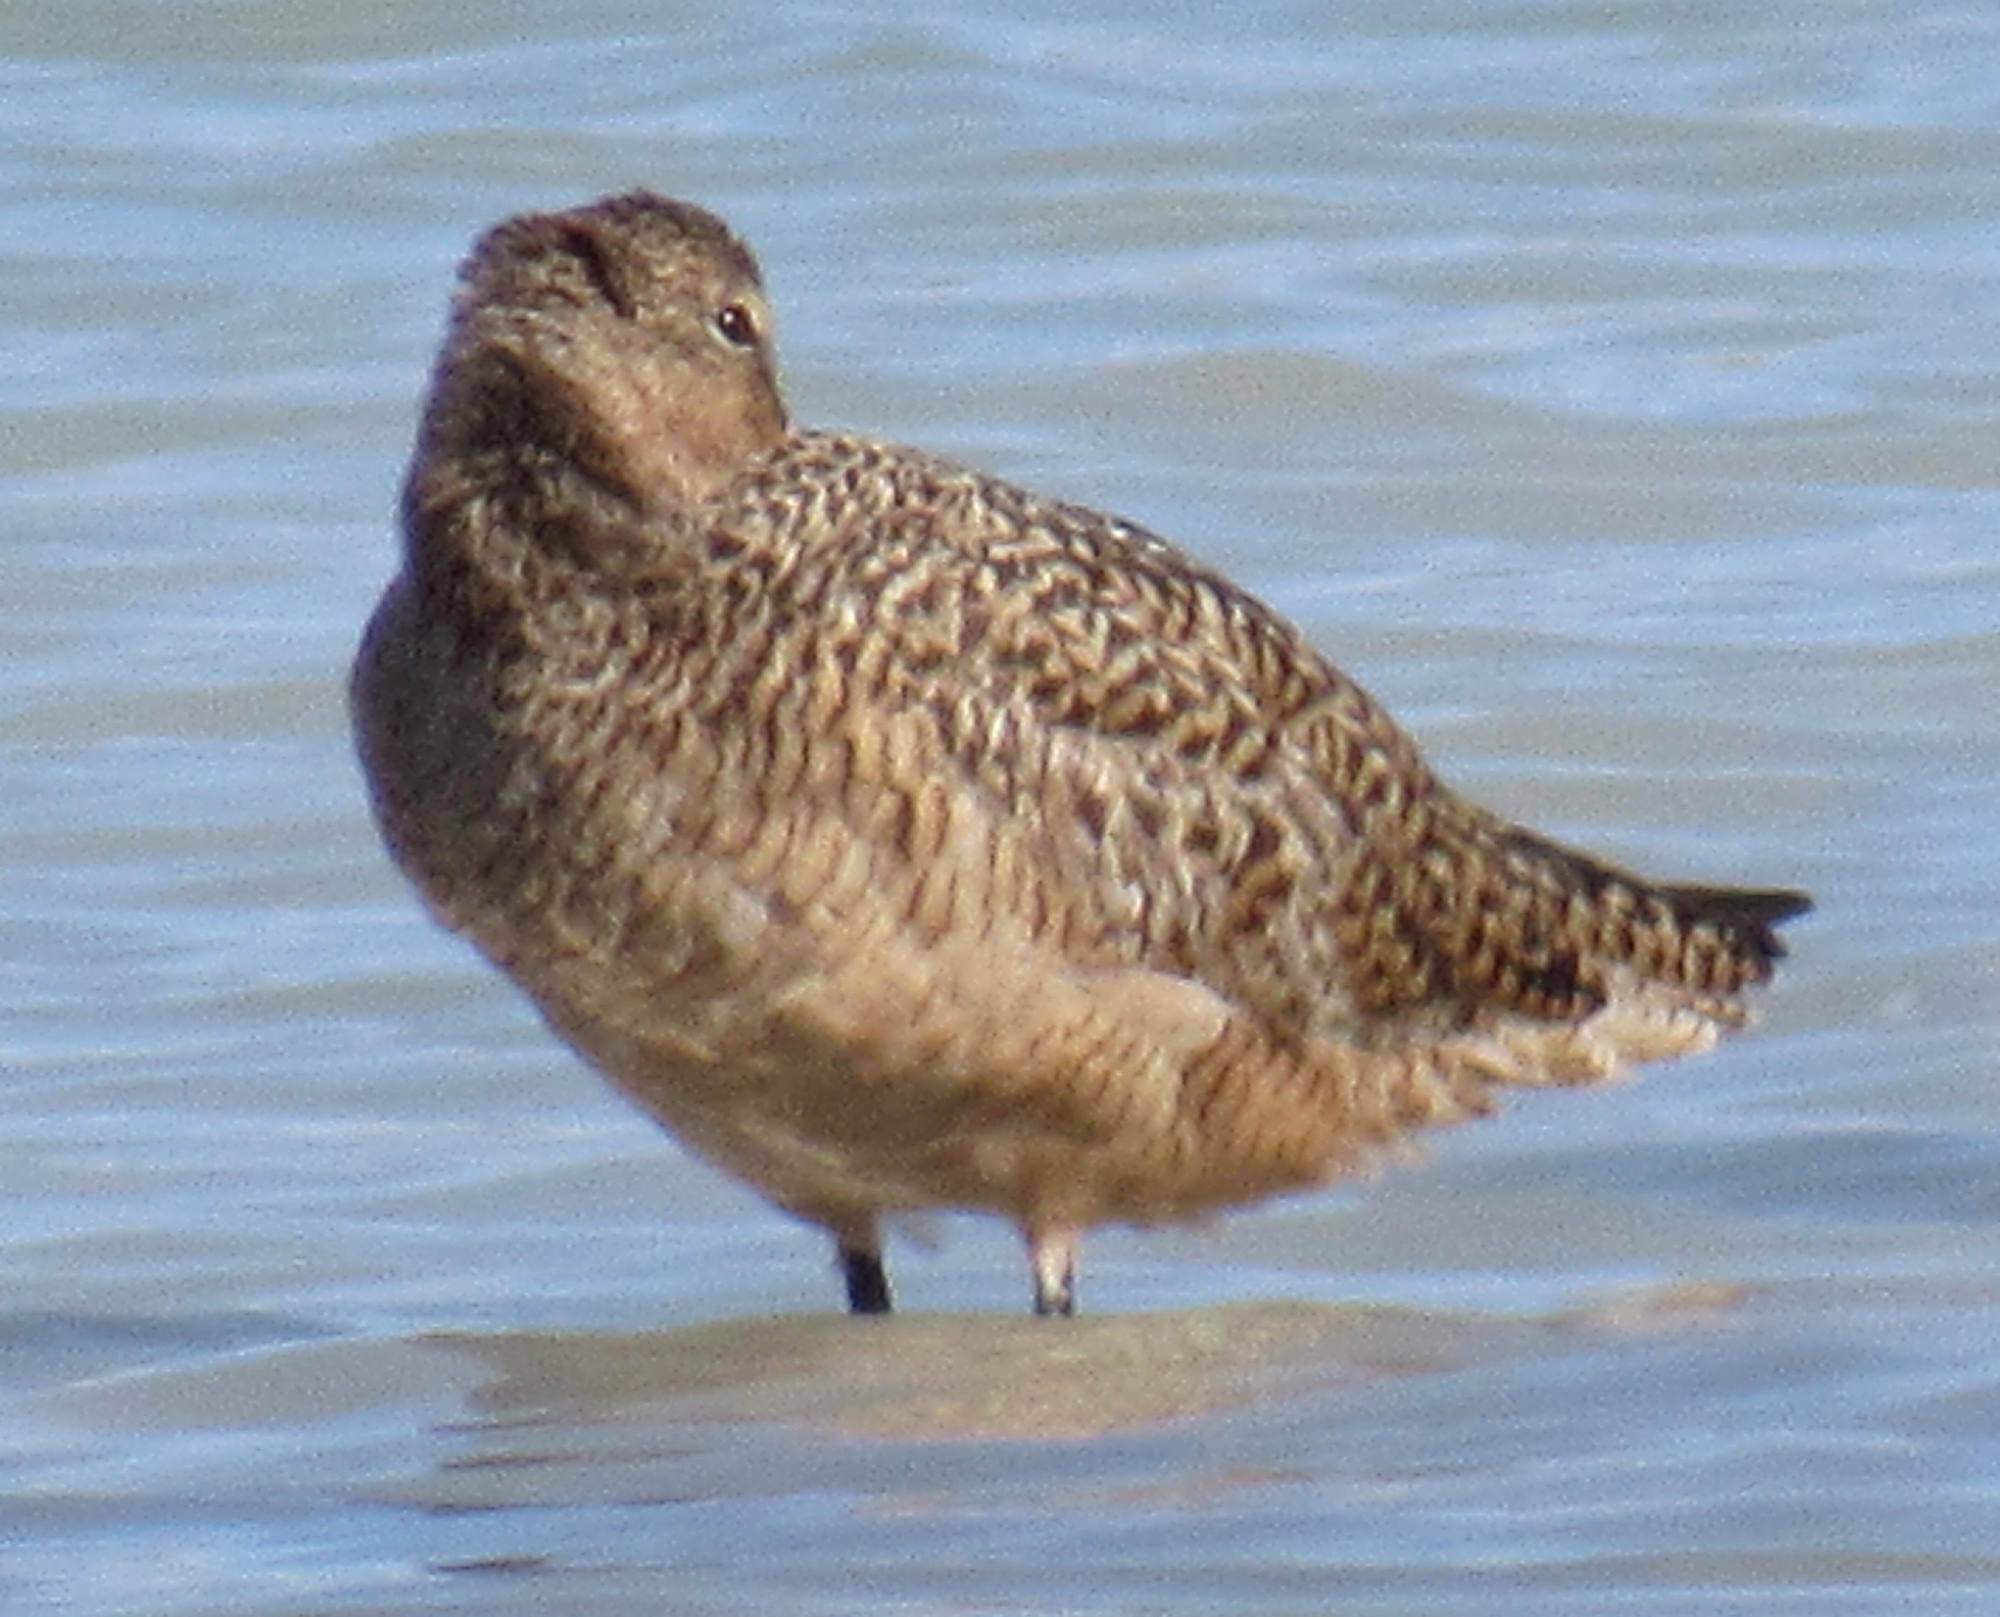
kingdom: Animalia
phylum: Chordata
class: Aves
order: Charadriiformes
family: Scolopacidae
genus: Limosa
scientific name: Limosa fedoa
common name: Marbled godwit
